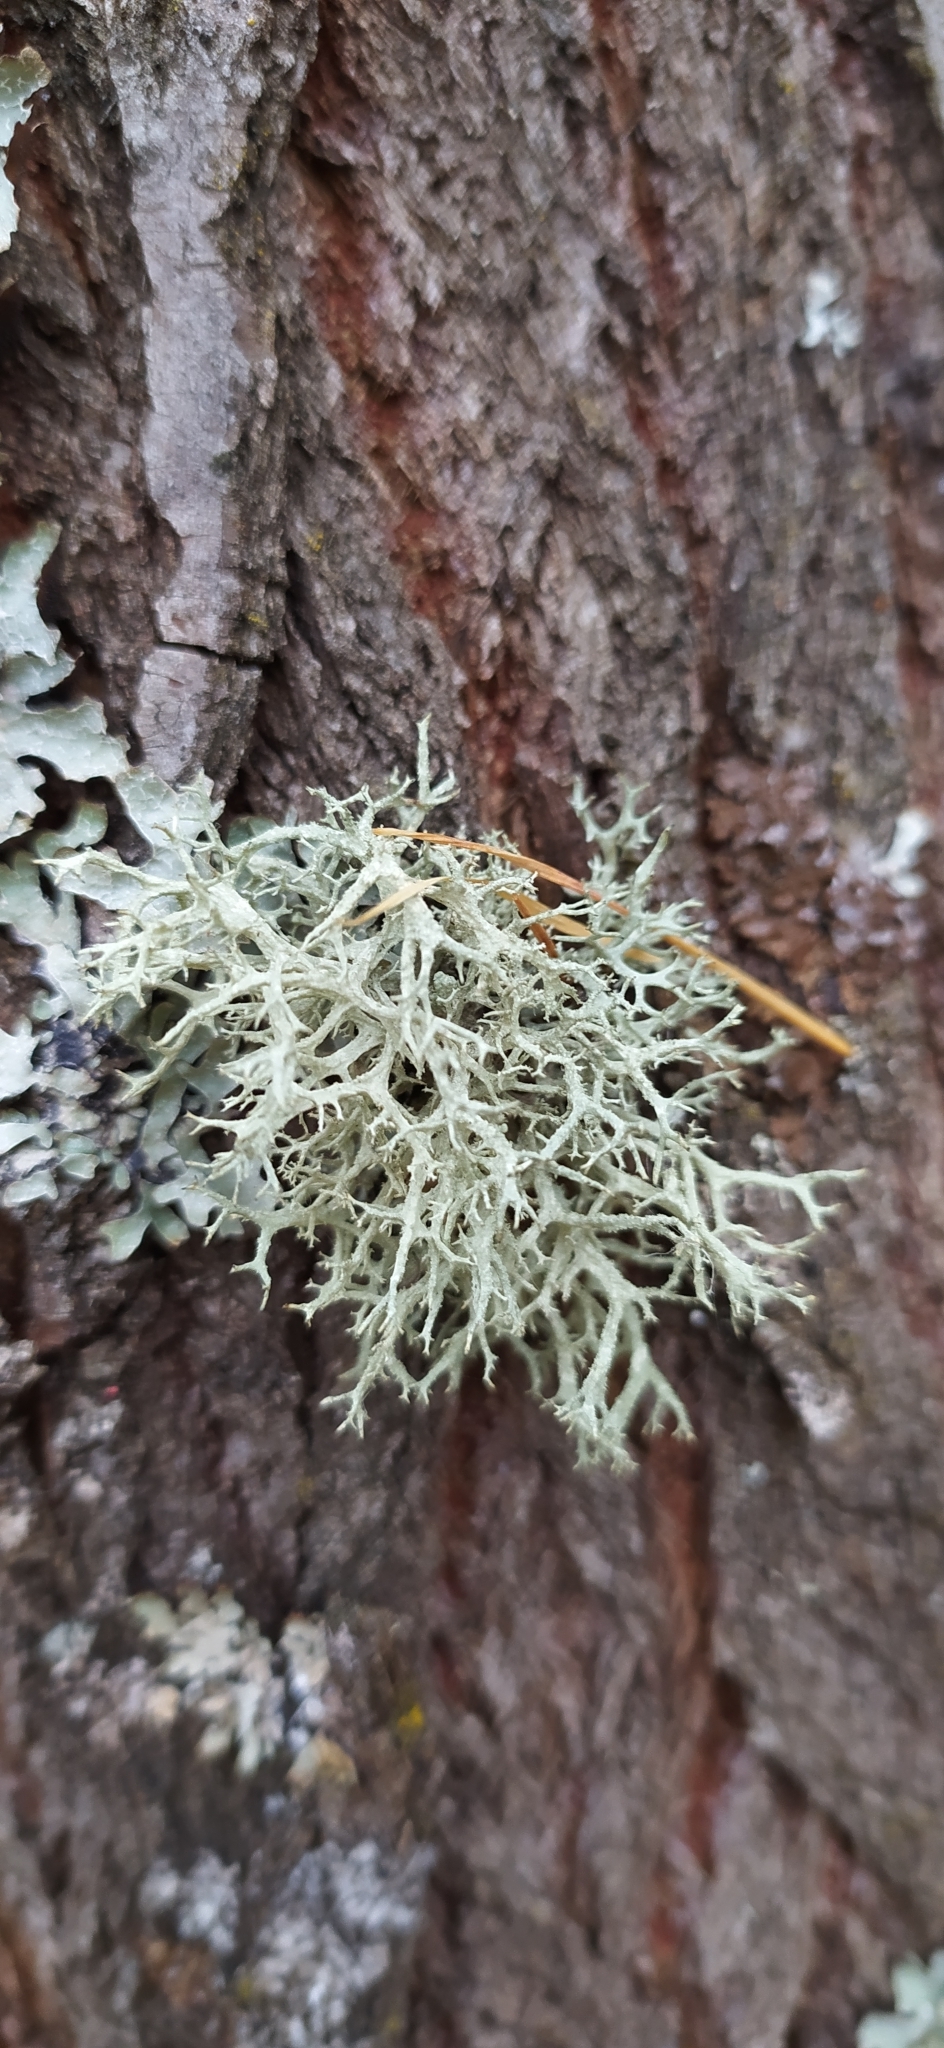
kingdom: Fungi
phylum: Ascomycota
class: Lecanoromycetes
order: Lecanorales
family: Parmeliaceae
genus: Evernia
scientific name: Evernia mesomorpha
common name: Boreal oak moss lichen
